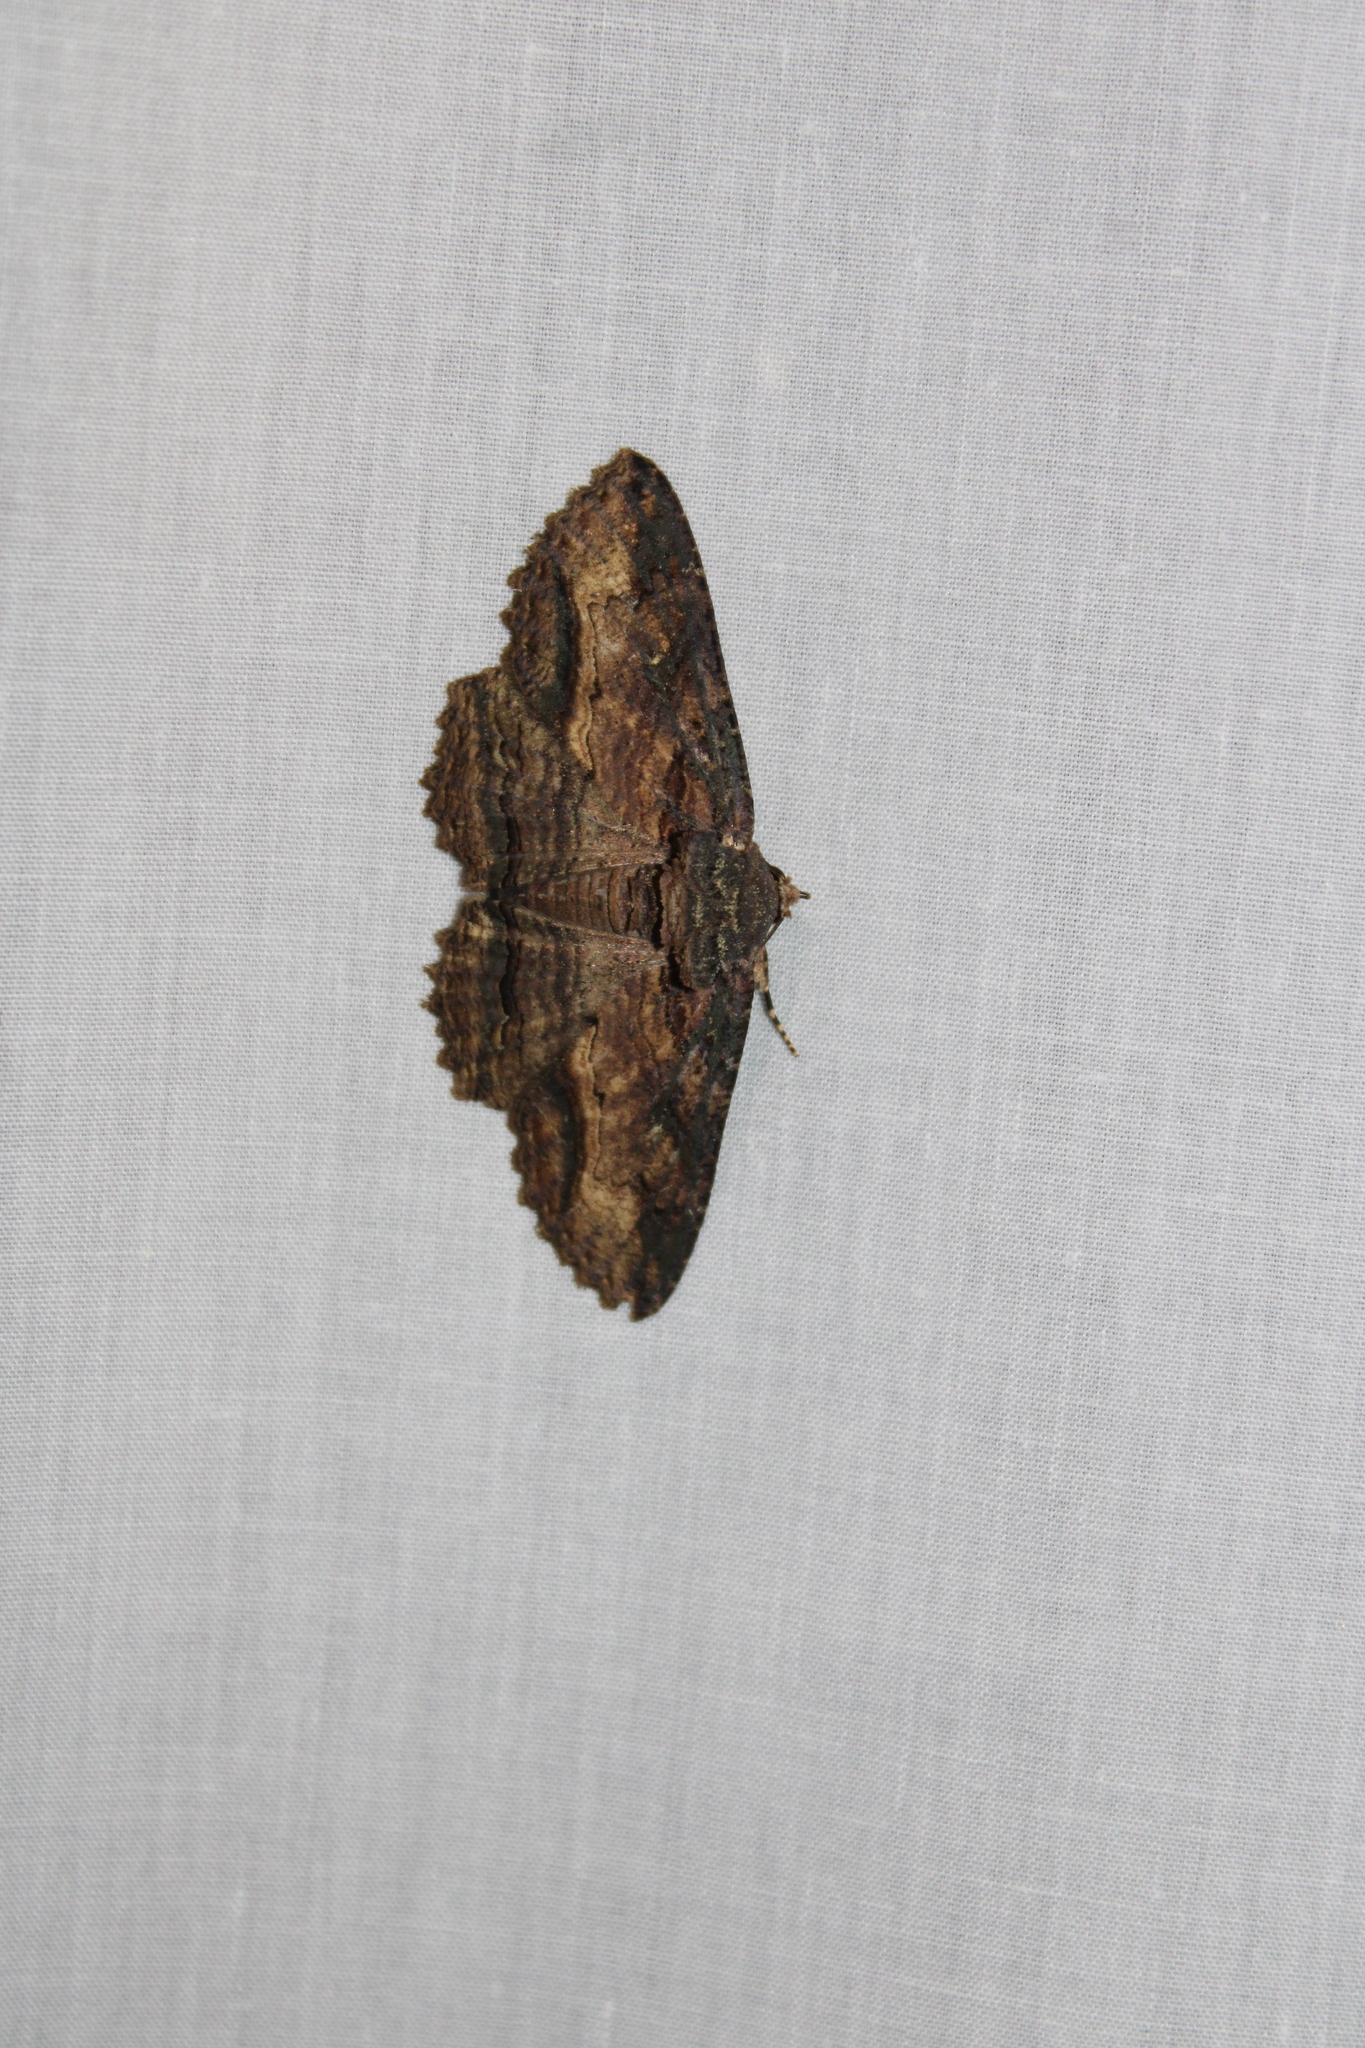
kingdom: Animalia
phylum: Arthropoda
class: Insecta
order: Lepidoptera
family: Erebidae
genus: Zale
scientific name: Zale lunata
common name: Lunate zale moth
